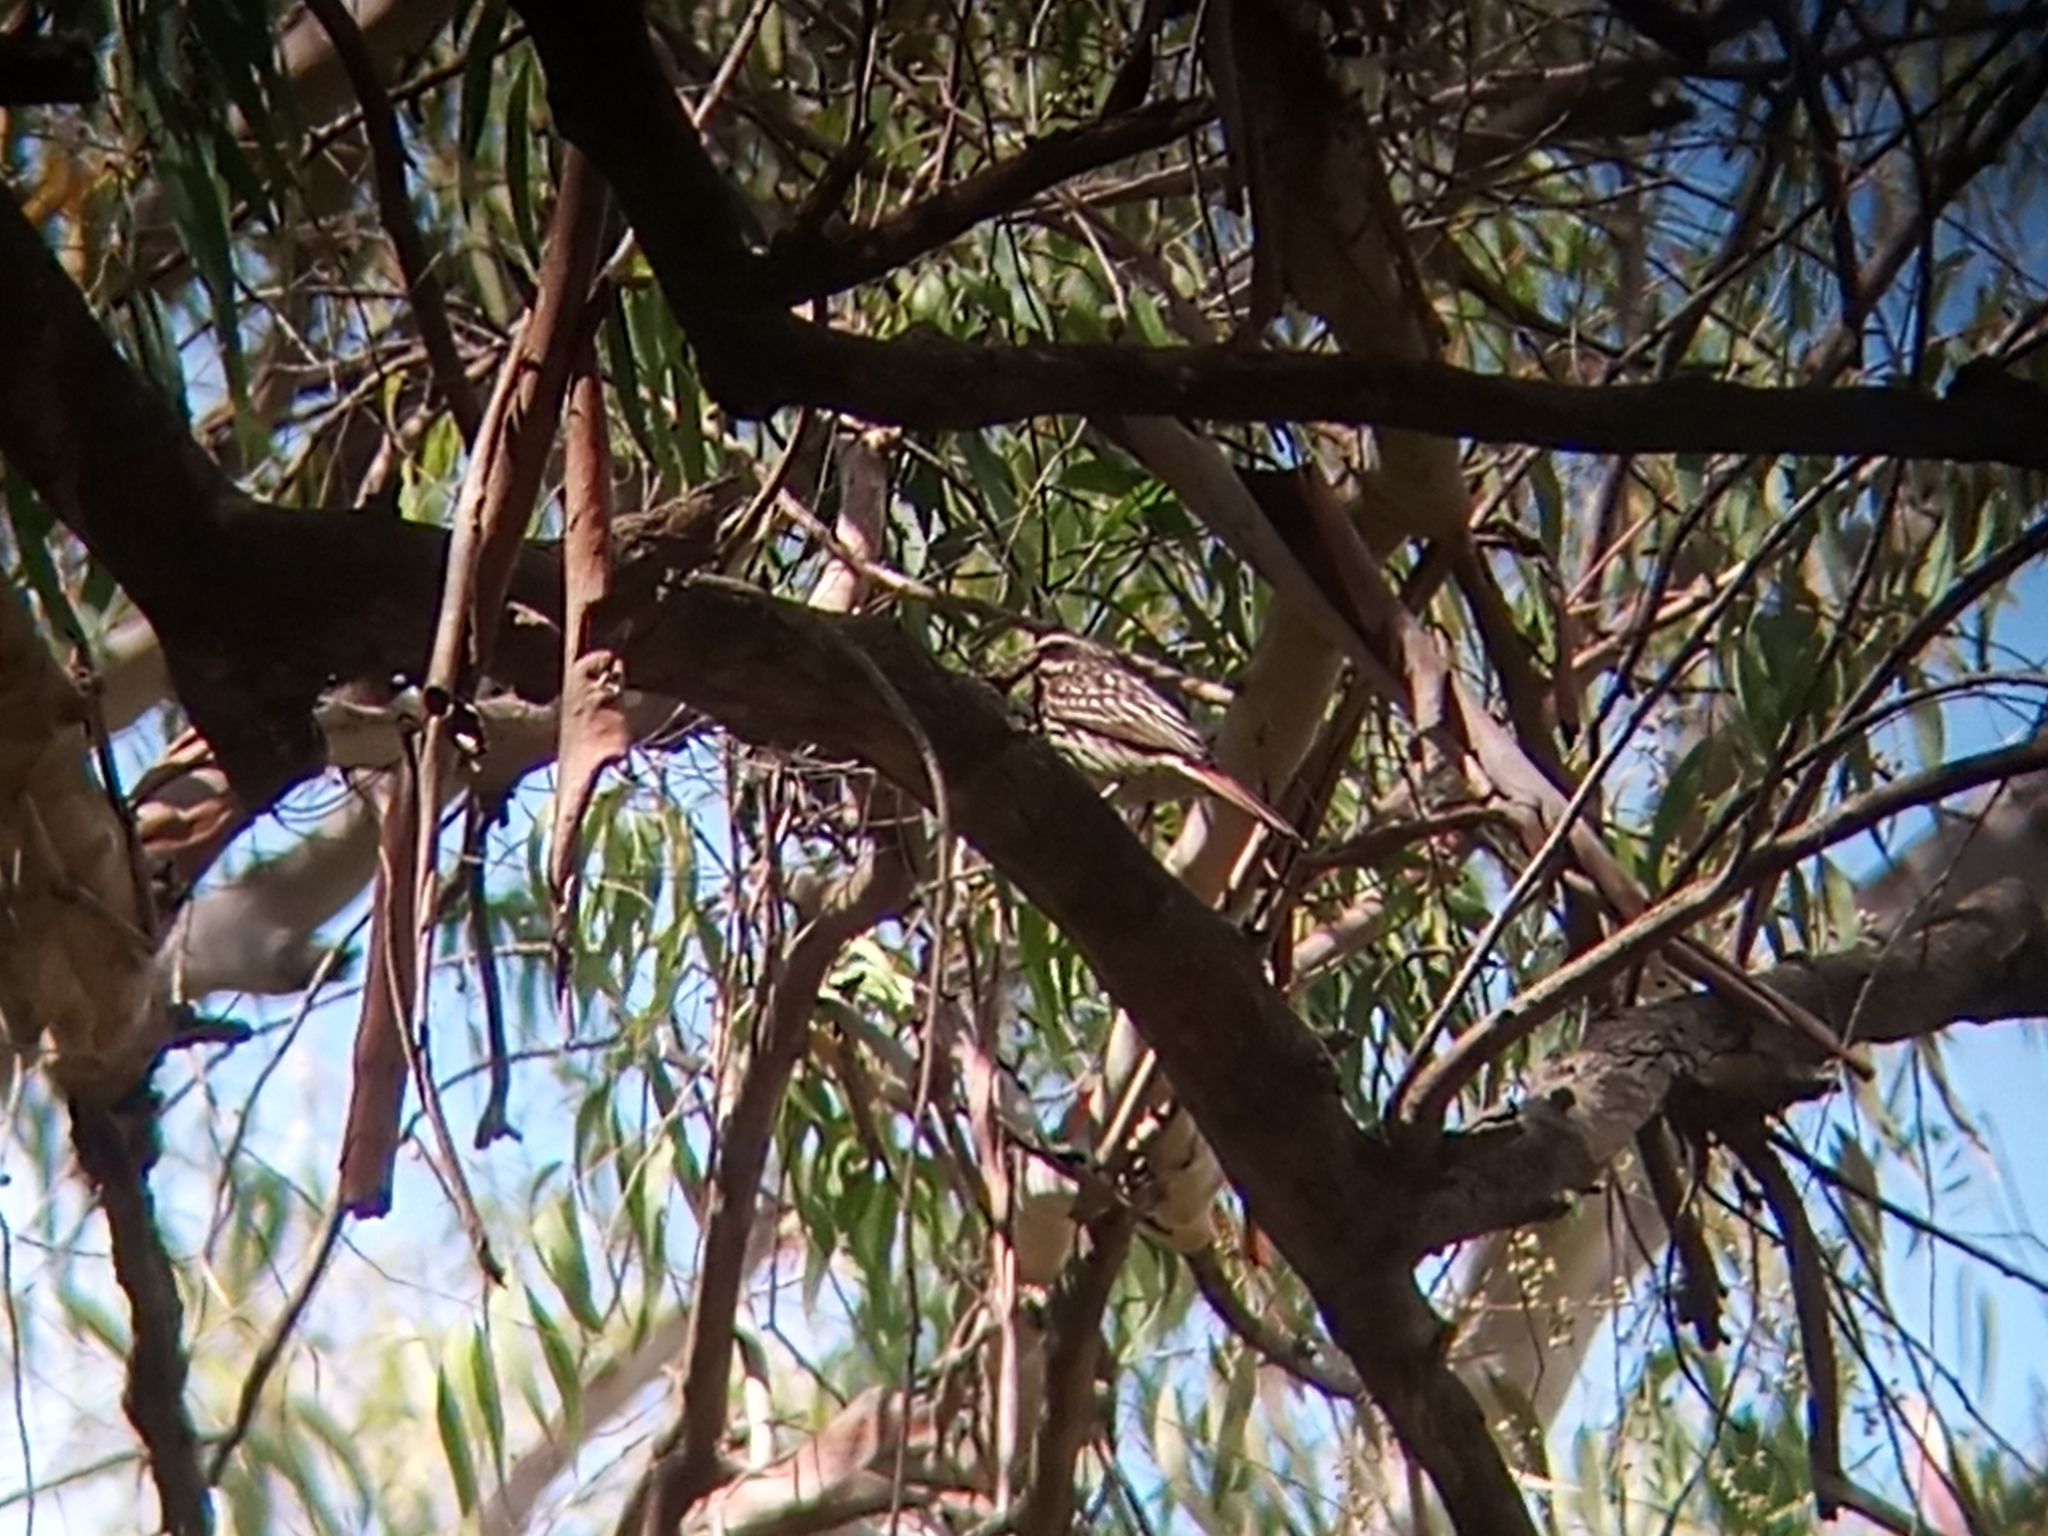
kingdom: Animalia
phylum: Chordata
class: Aves
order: Passeriformes
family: Tyrannidae
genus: Myiodynastes
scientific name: Myiodynastes maculatus
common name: Streaked flycatcher
